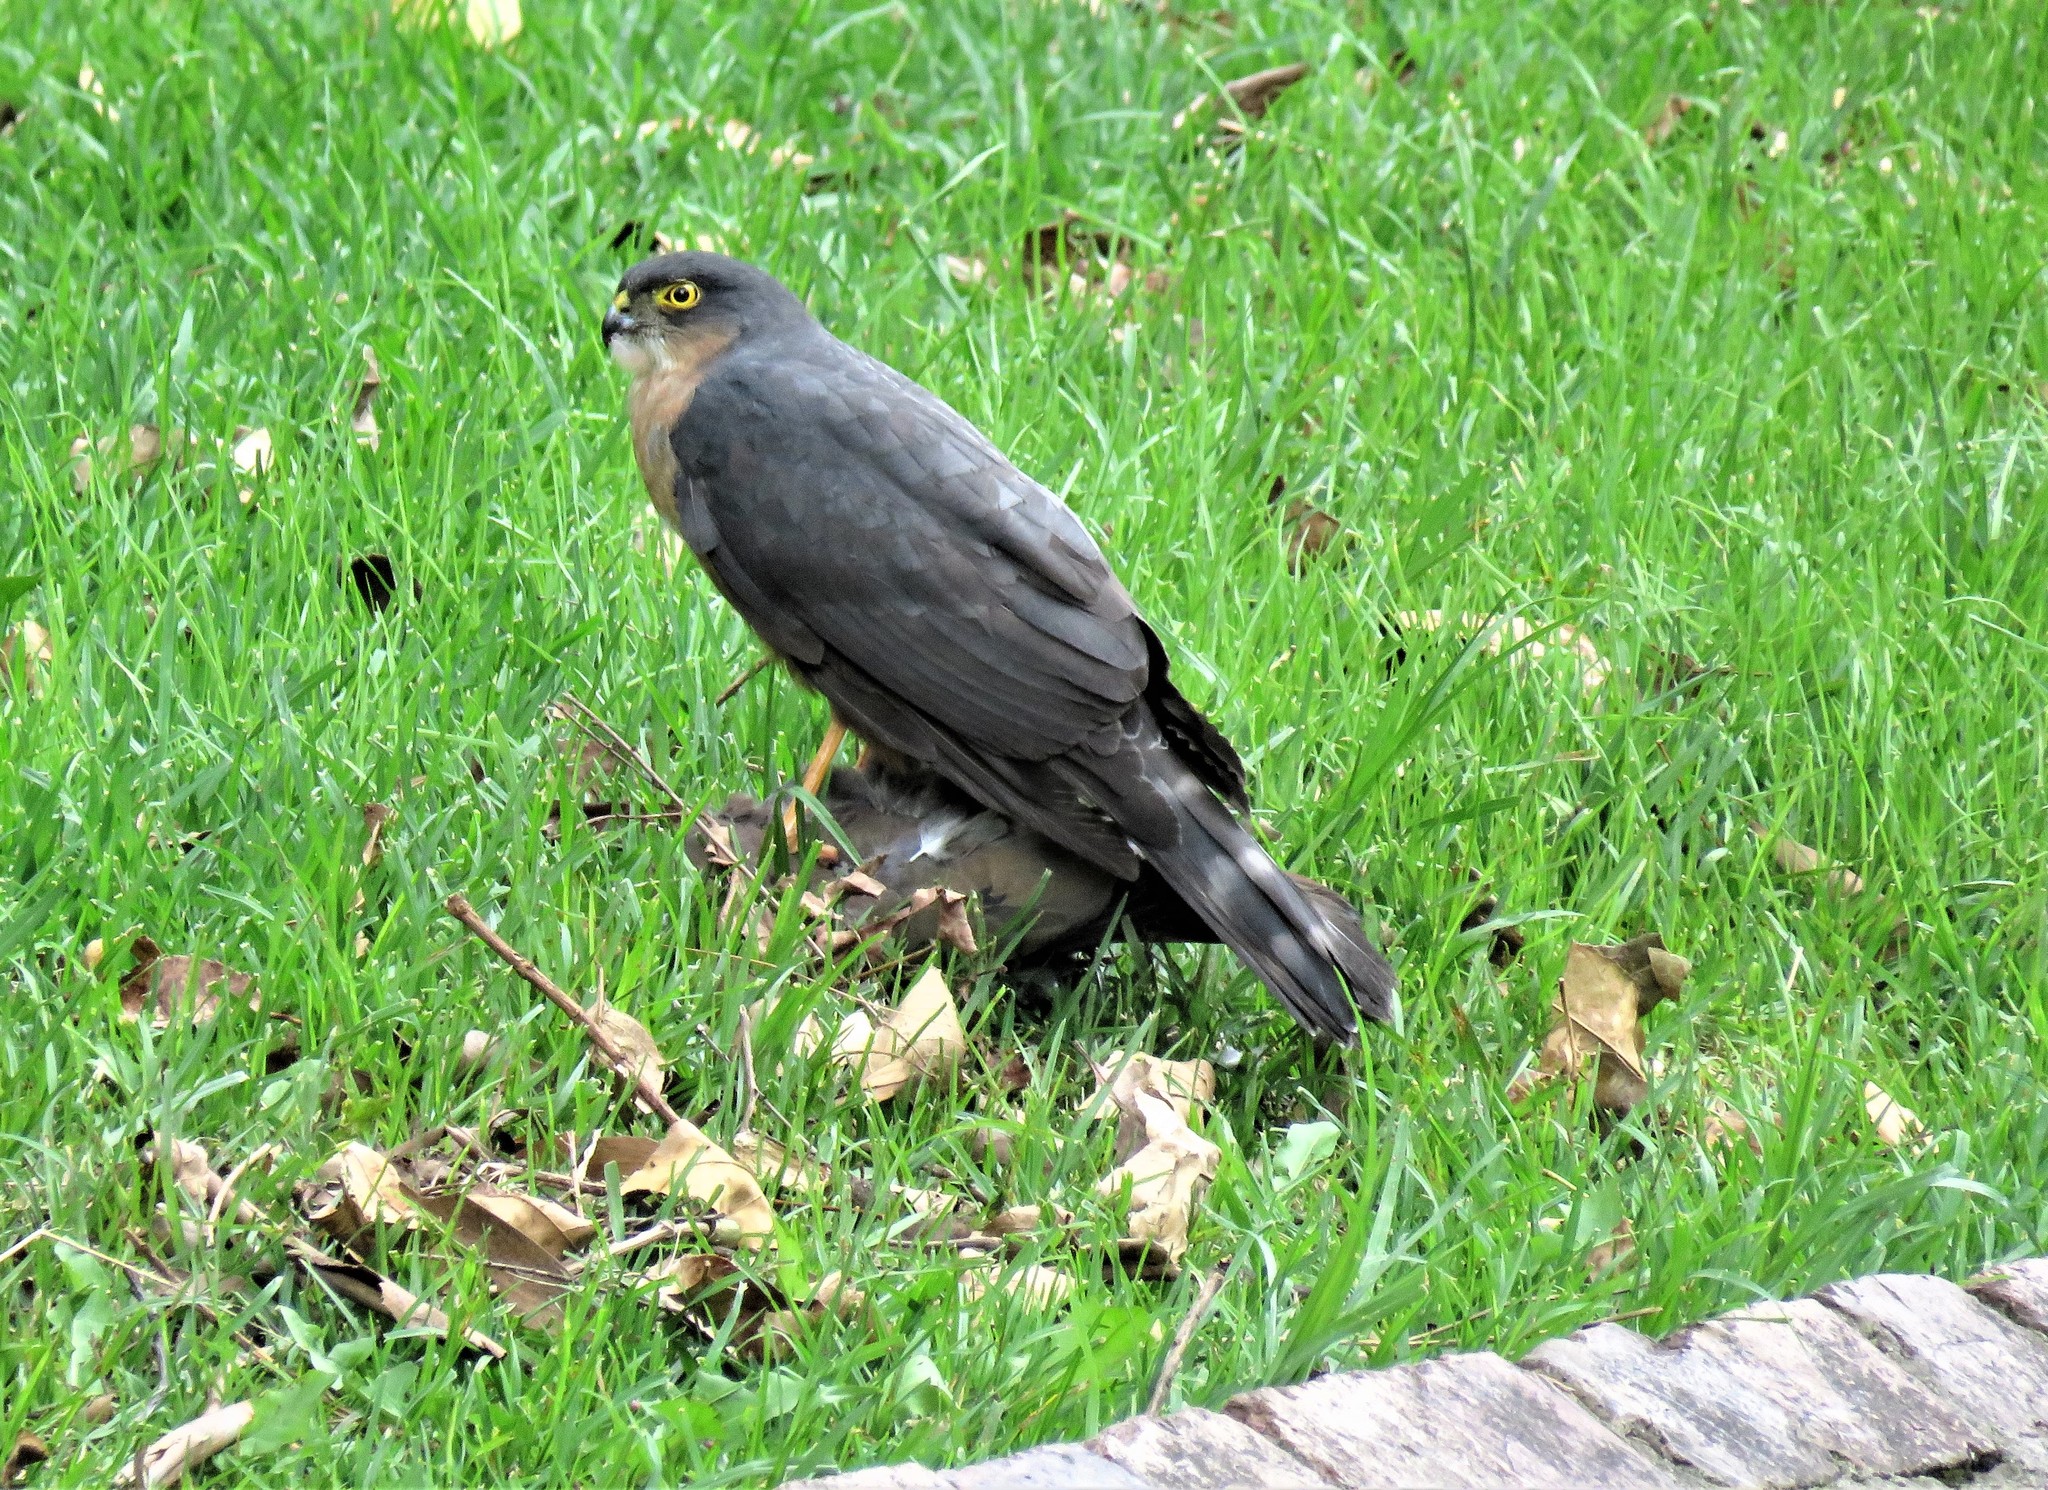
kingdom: Animalia
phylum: Chordata
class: Aves
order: Accipitriformes
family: Accipitridae
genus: Accipiter
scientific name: Accipiter striatus
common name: Sharp-shinned hawk
